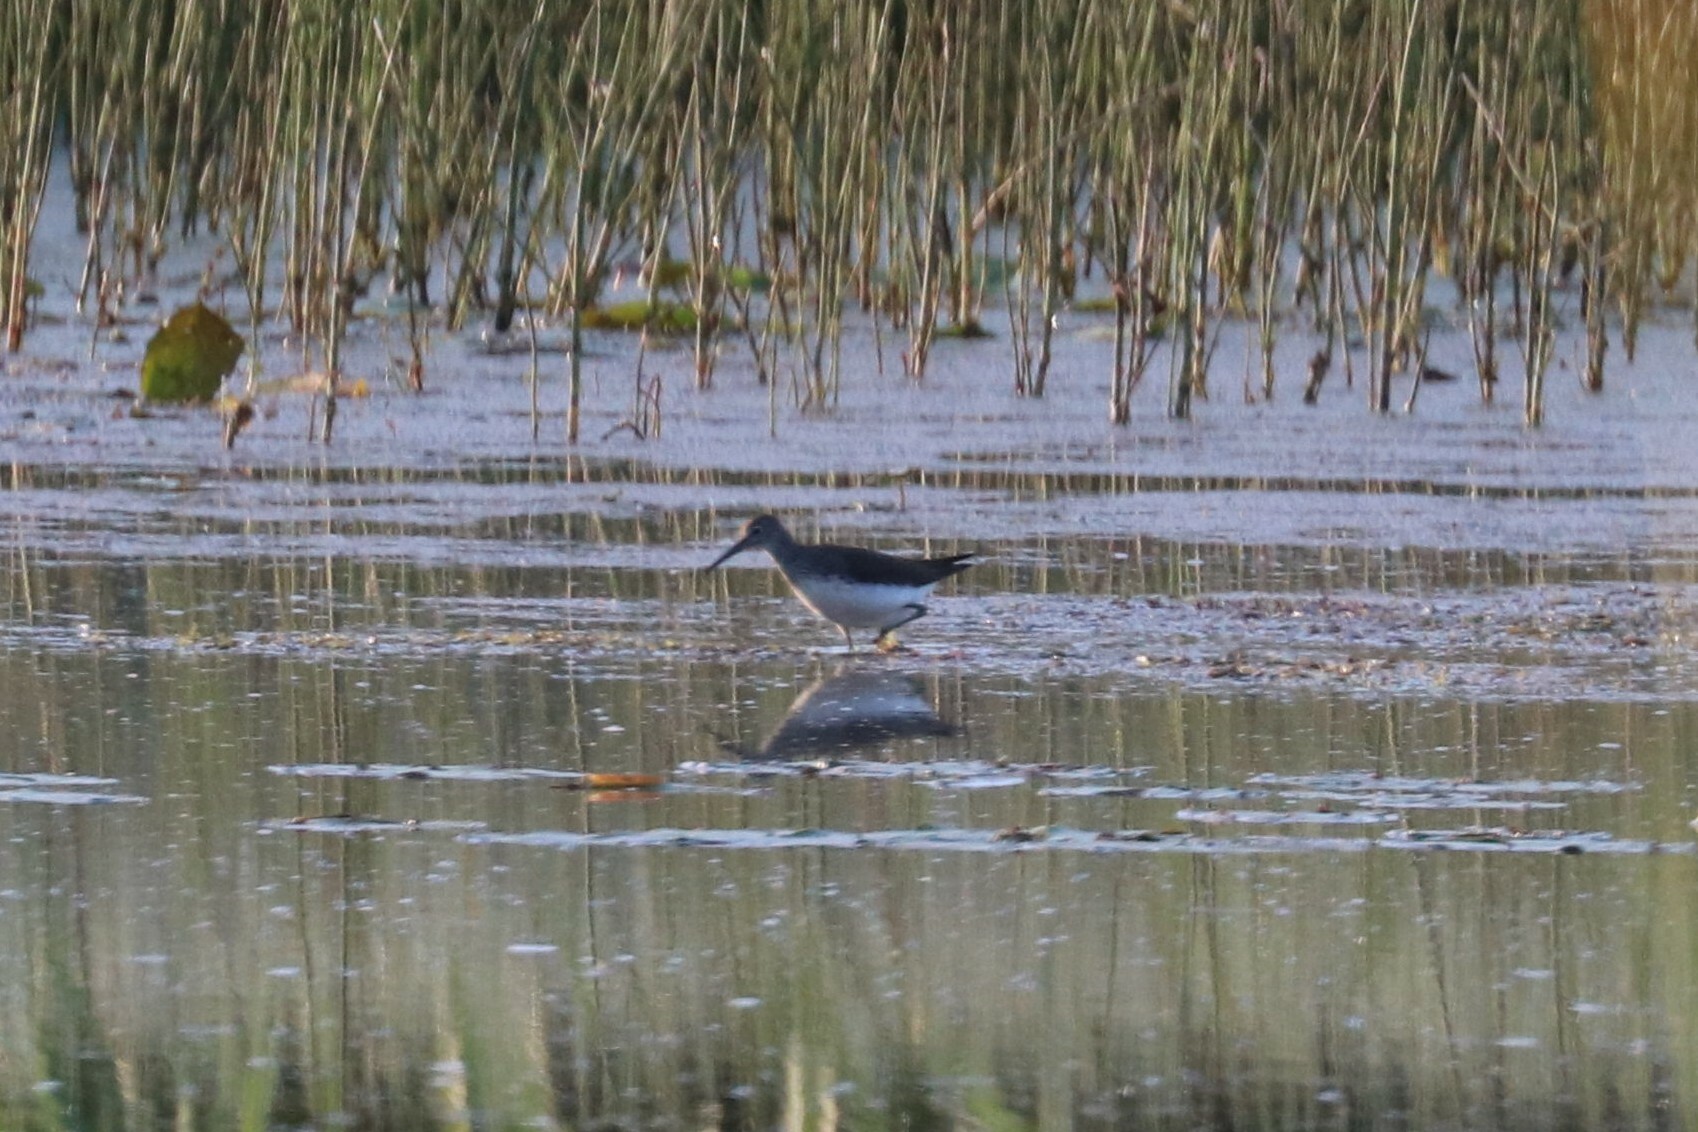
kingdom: Animalia
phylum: Chordata
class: Aves
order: Charadriiformes
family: Scolopacidae
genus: Tringa
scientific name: Tringa ochropus
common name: Green sandpiper
